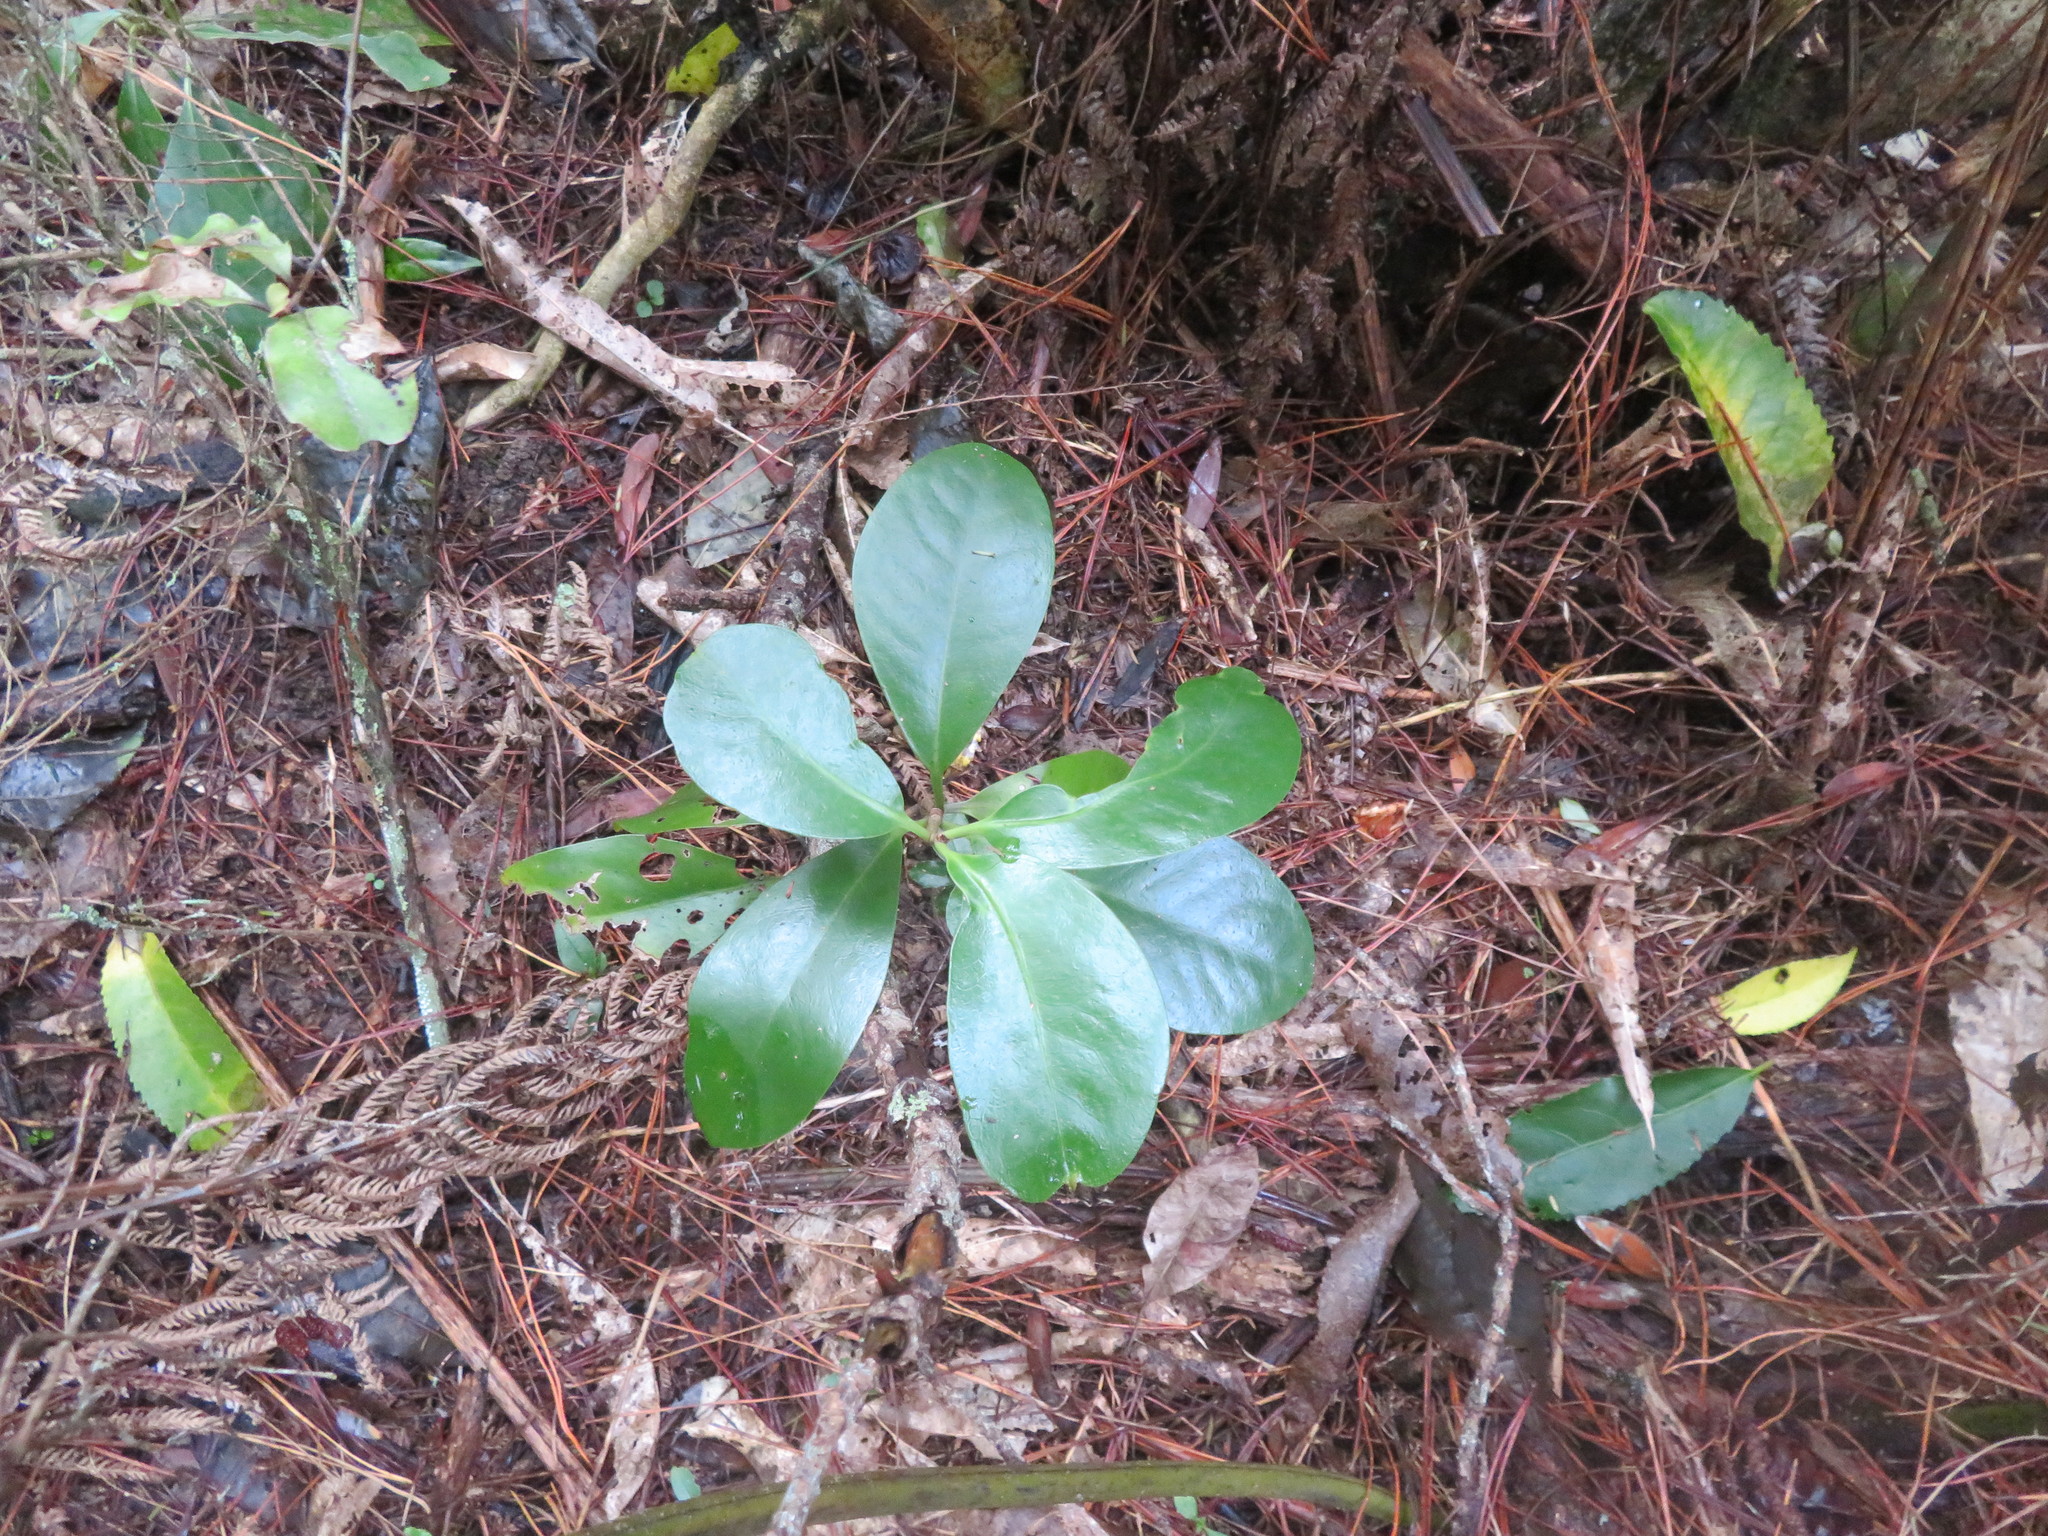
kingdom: Plantae
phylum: Tracheophyta
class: Magnoliopsida
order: Cucurbitales
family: Corynocarpaceae
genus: Corynocarpus
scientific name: Corynocarpus laevigatus
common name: New zealand laurel
